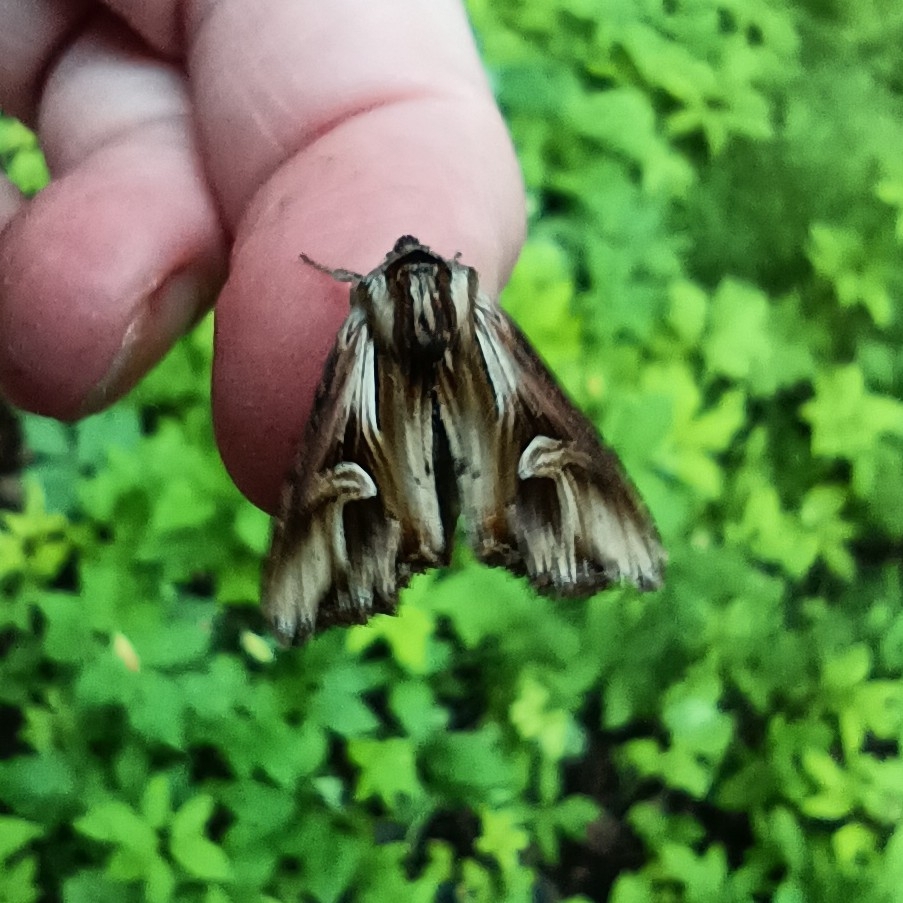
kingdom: Animalia
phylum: Arthropoda
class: Insecta
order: Lepidoptera
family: Noctuidae
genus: Actinotia
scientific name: Actinotia polyodon
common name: Purple cloud
